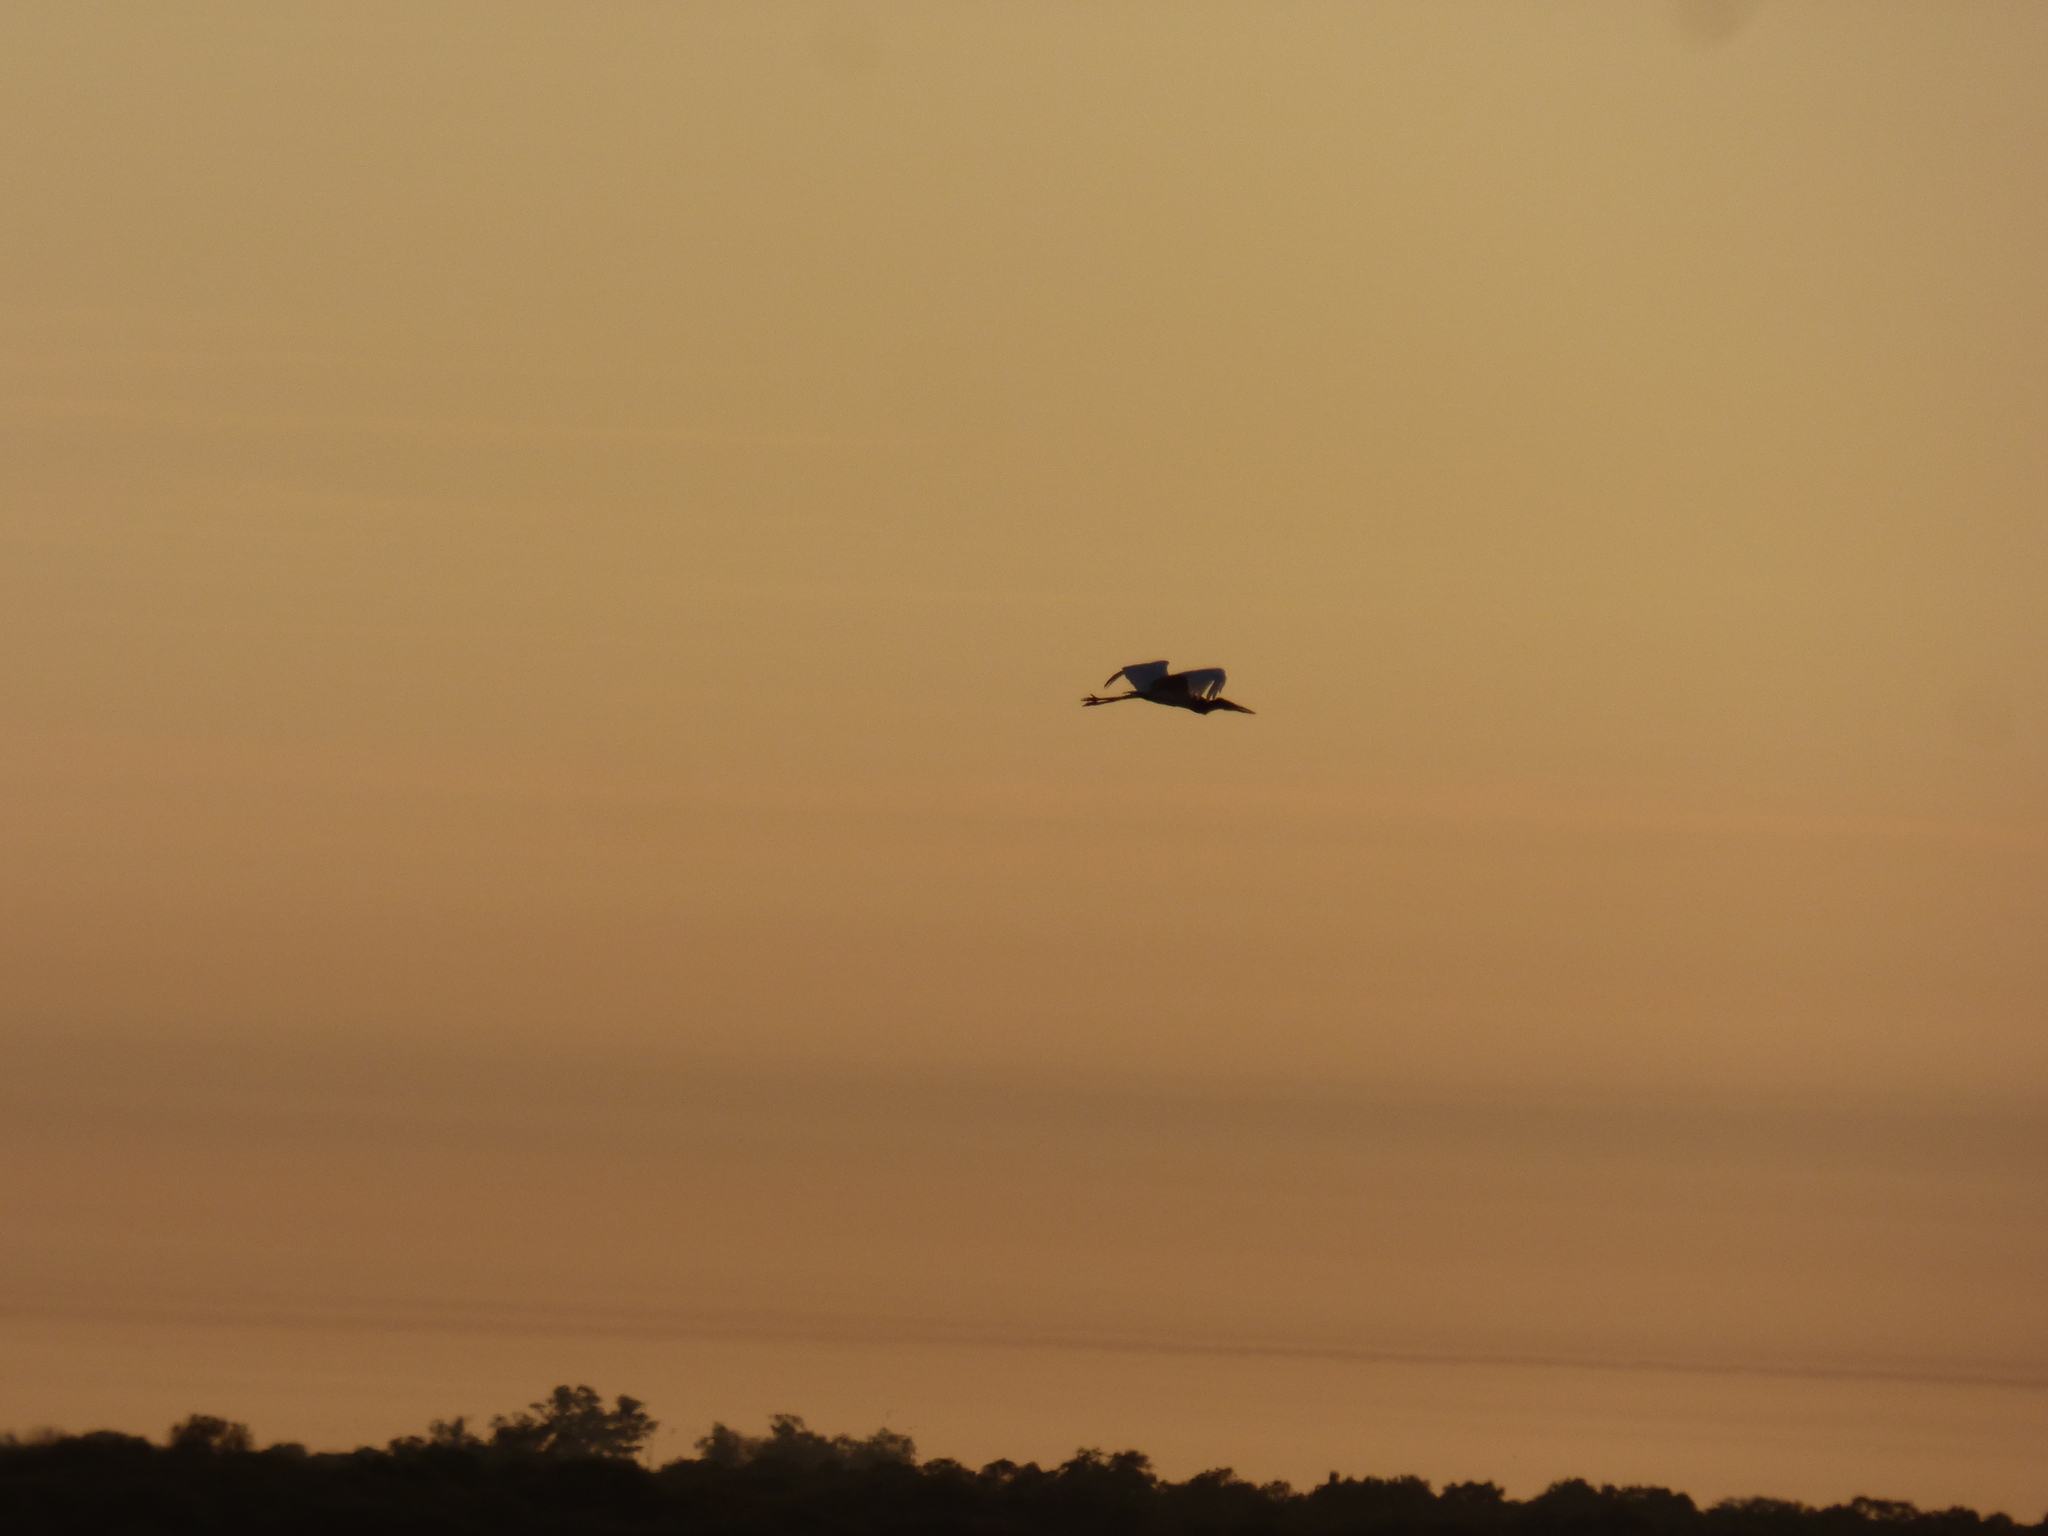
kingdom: Animalia
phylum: Chordata
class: Aves
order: Ciconiiformes
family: Ciconiidae
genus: Jabiru
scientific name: Jabiru mycteria
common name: Jabiru
